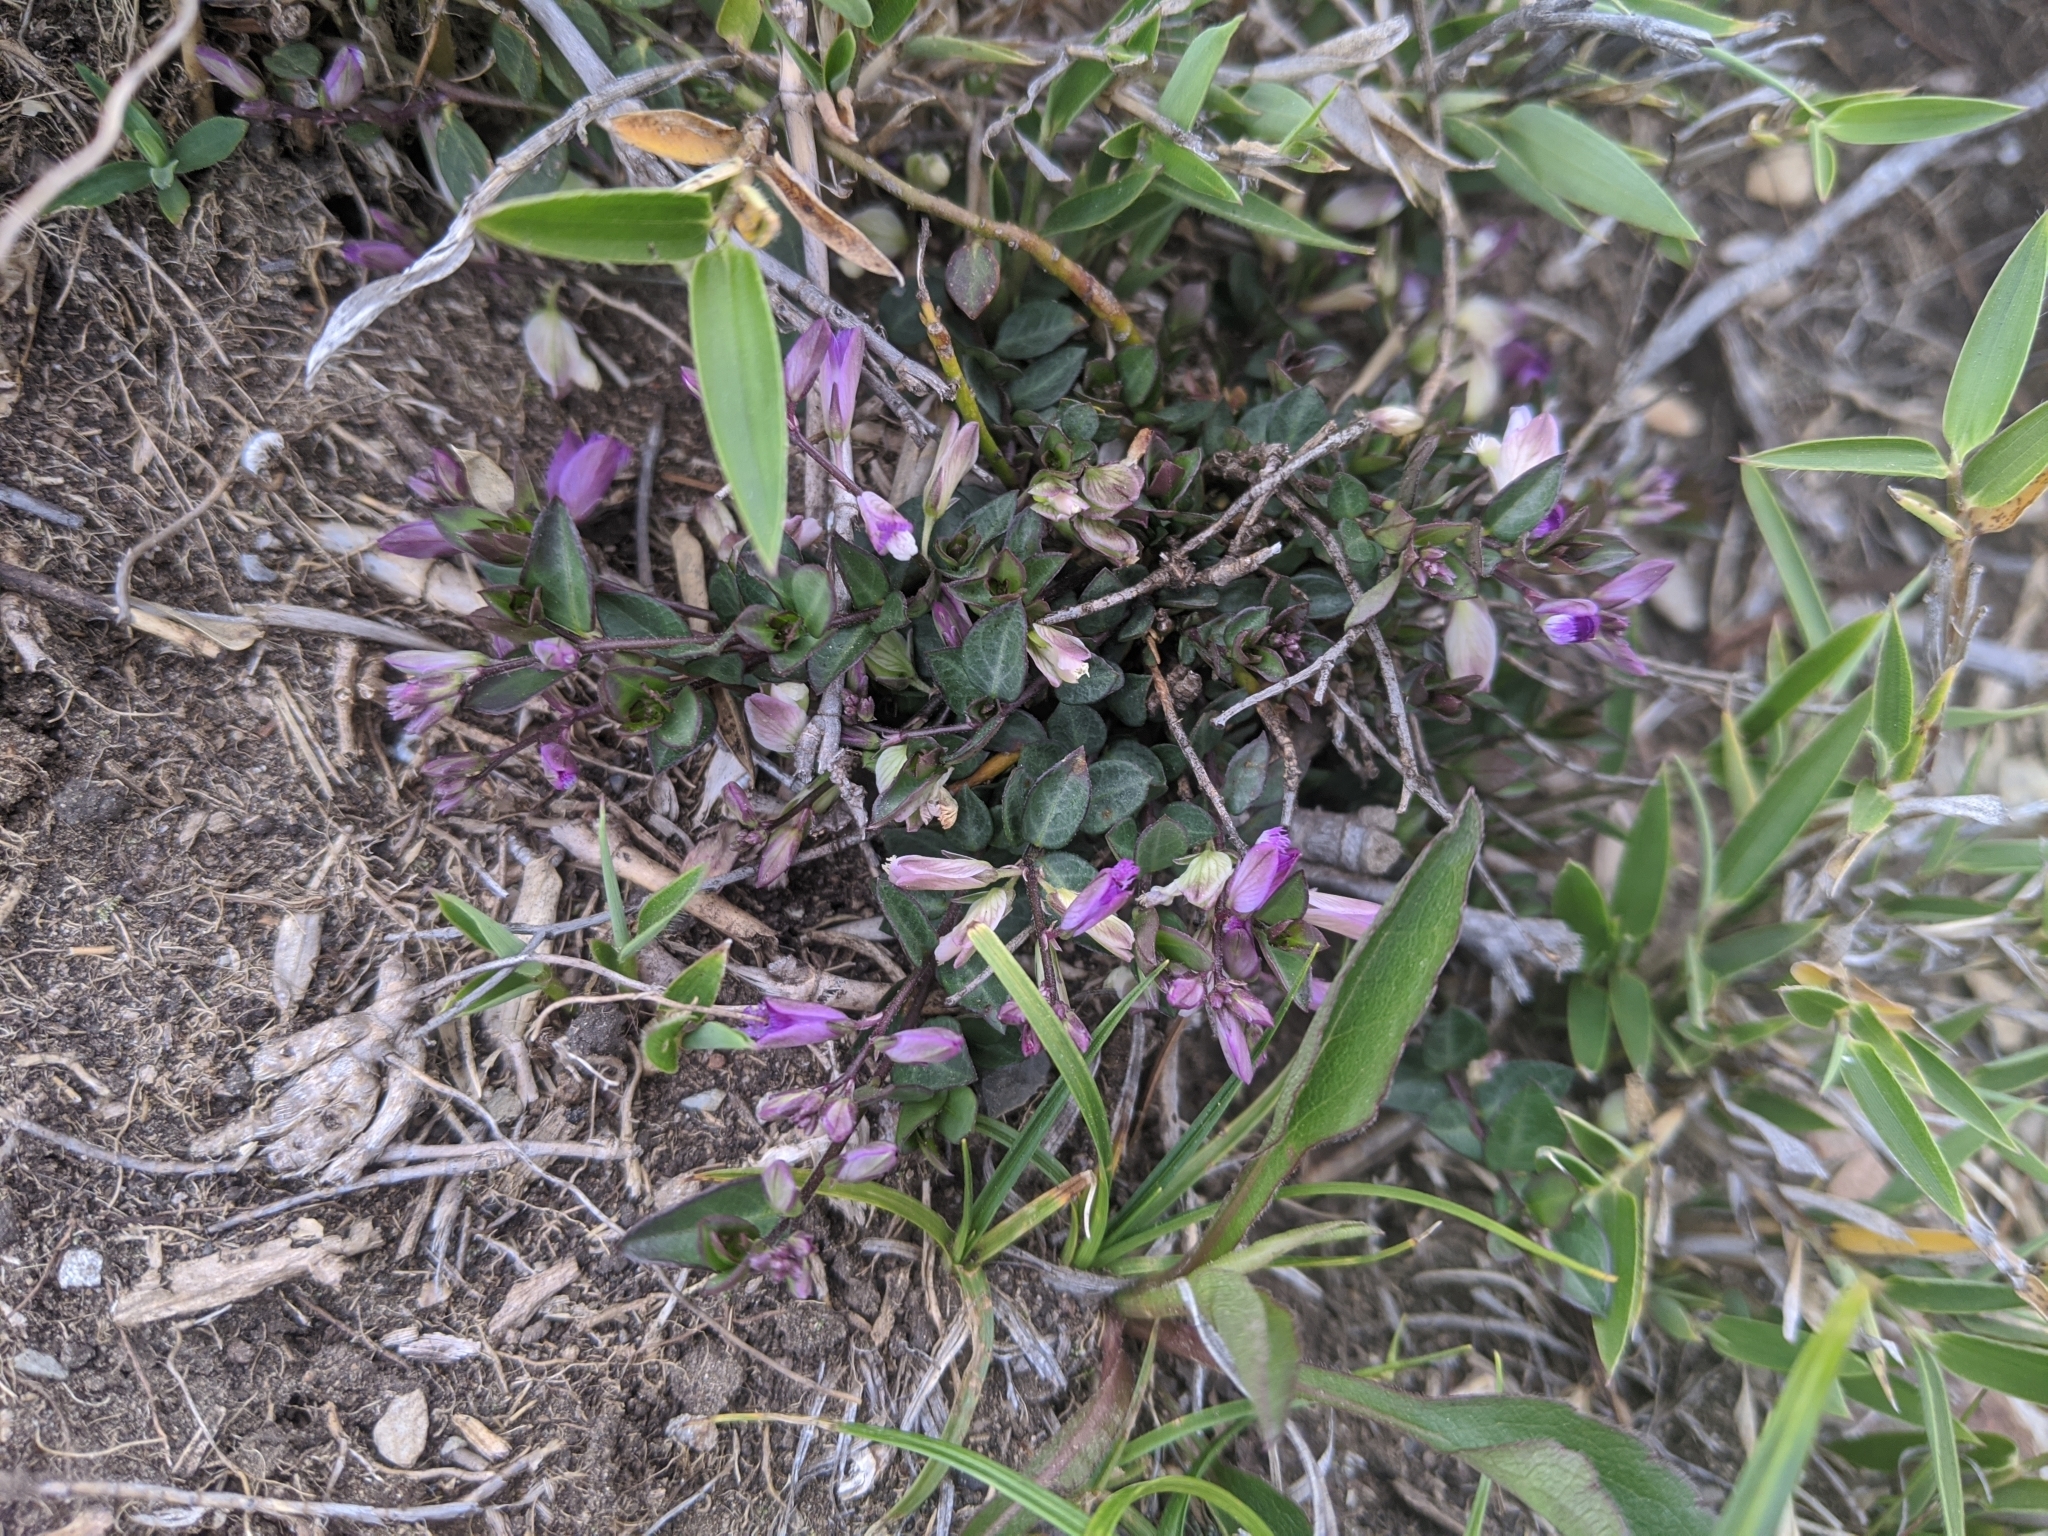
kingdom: Plantae
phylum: Tracheophyta
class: Magnoliopsida
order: Fabales
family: Polygalaceae
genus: Polygala
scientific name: Polygala japonica
